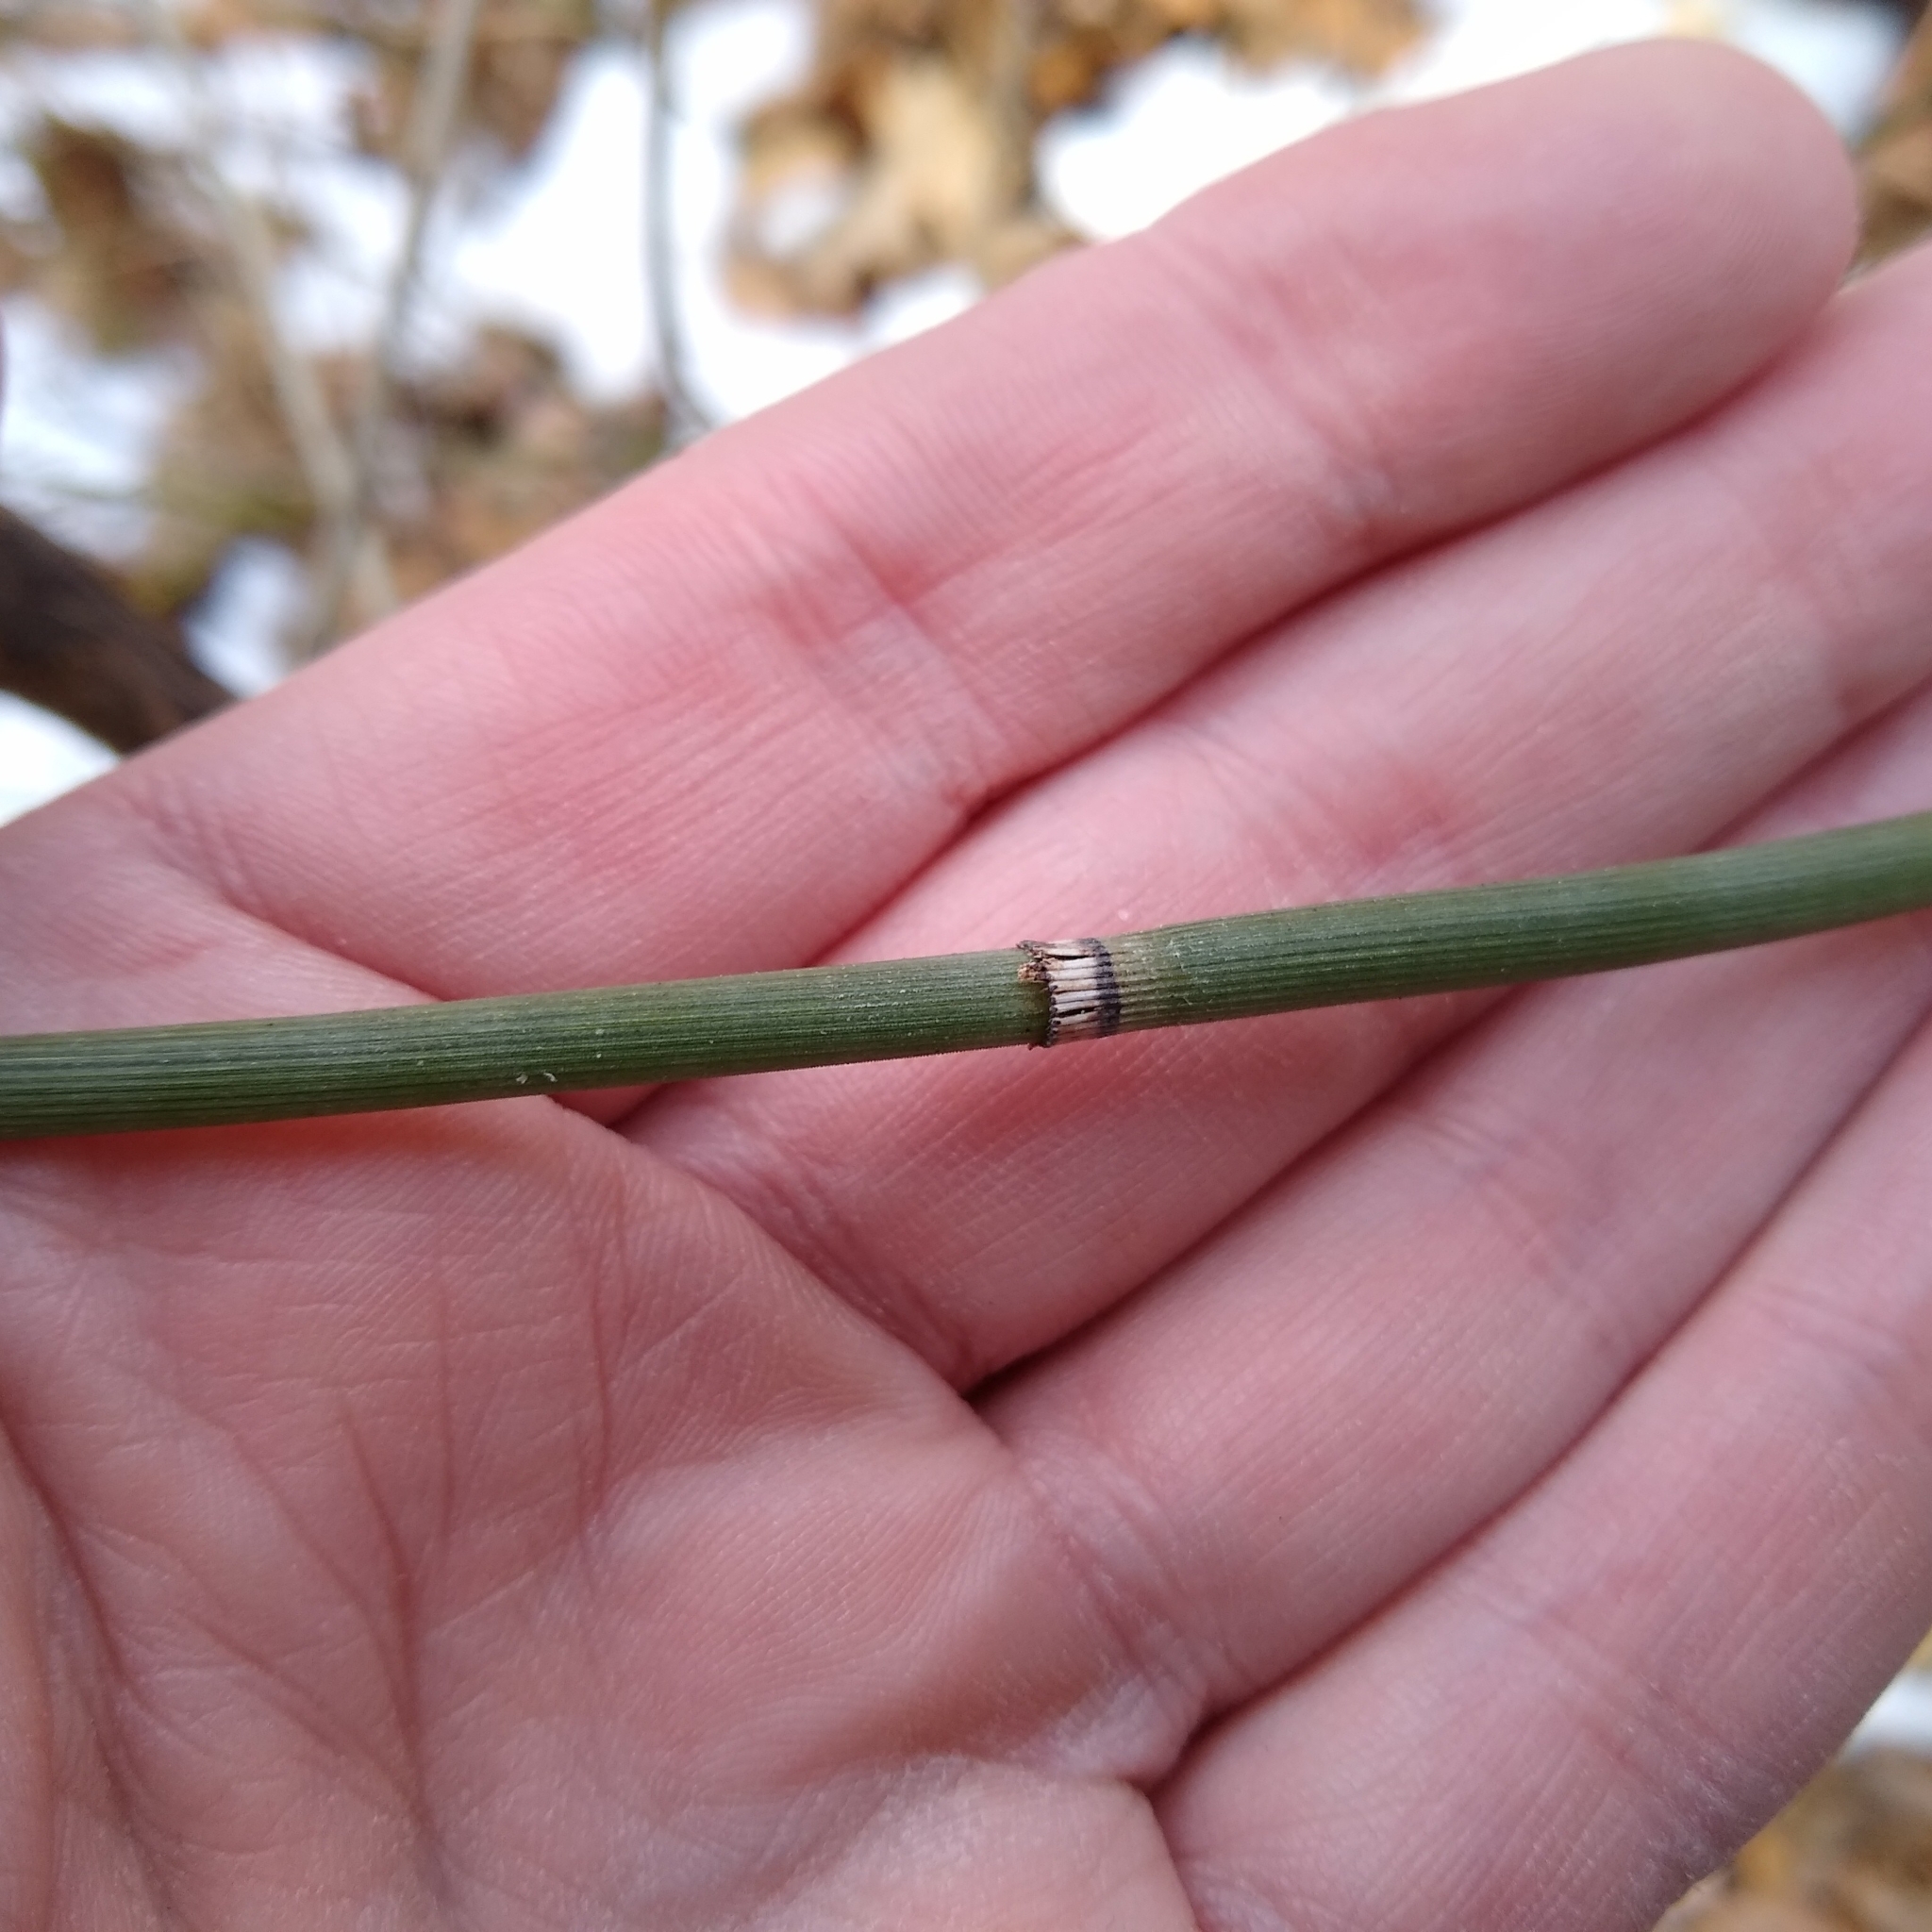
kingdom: Plantae
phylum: Tracheophyta
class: Polypodiopsida
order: Equisetales
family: Equisetaceae
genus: Equisetum
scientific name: Equisetum hyemale
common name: Rough horsetail
